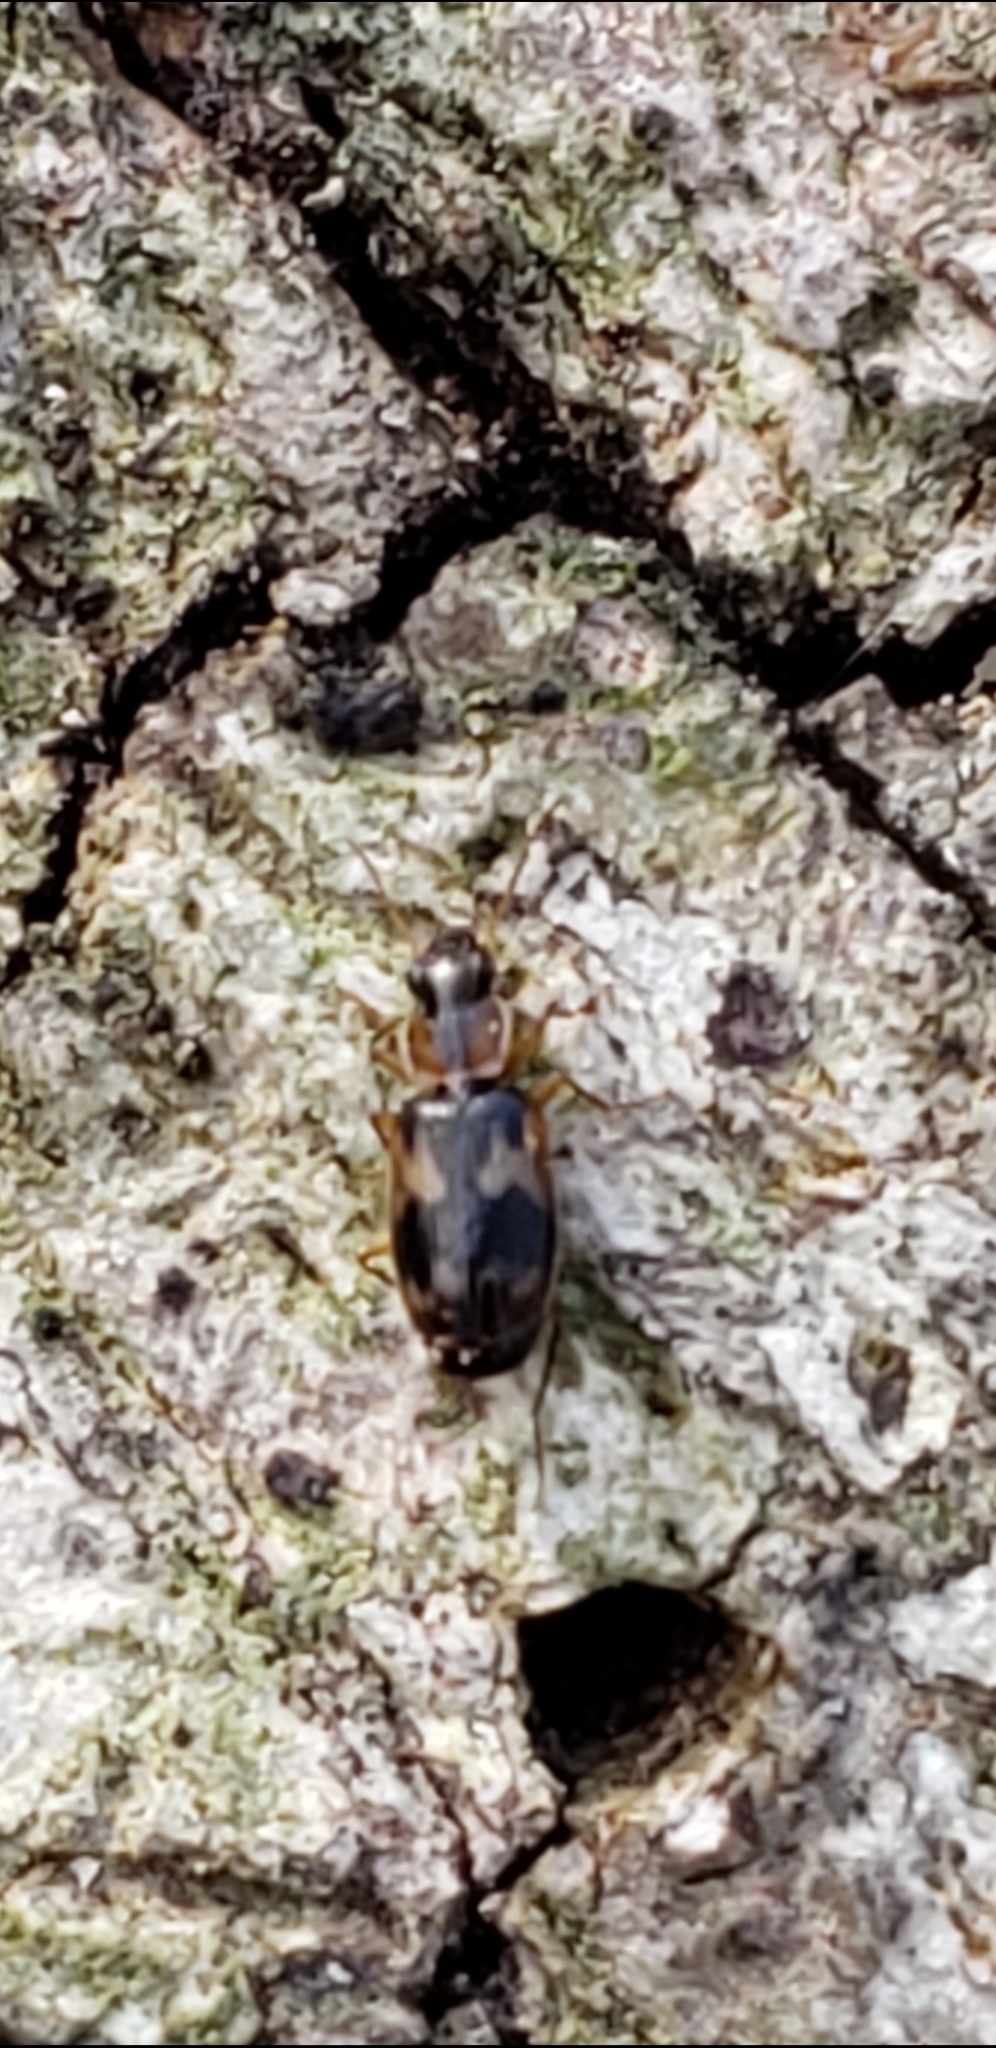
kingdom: Animalia
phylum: Arthropoda
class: Insecta
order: Coleoptera
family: Carabidae
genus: Phloeoxena
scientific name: Phloeoxena signata
